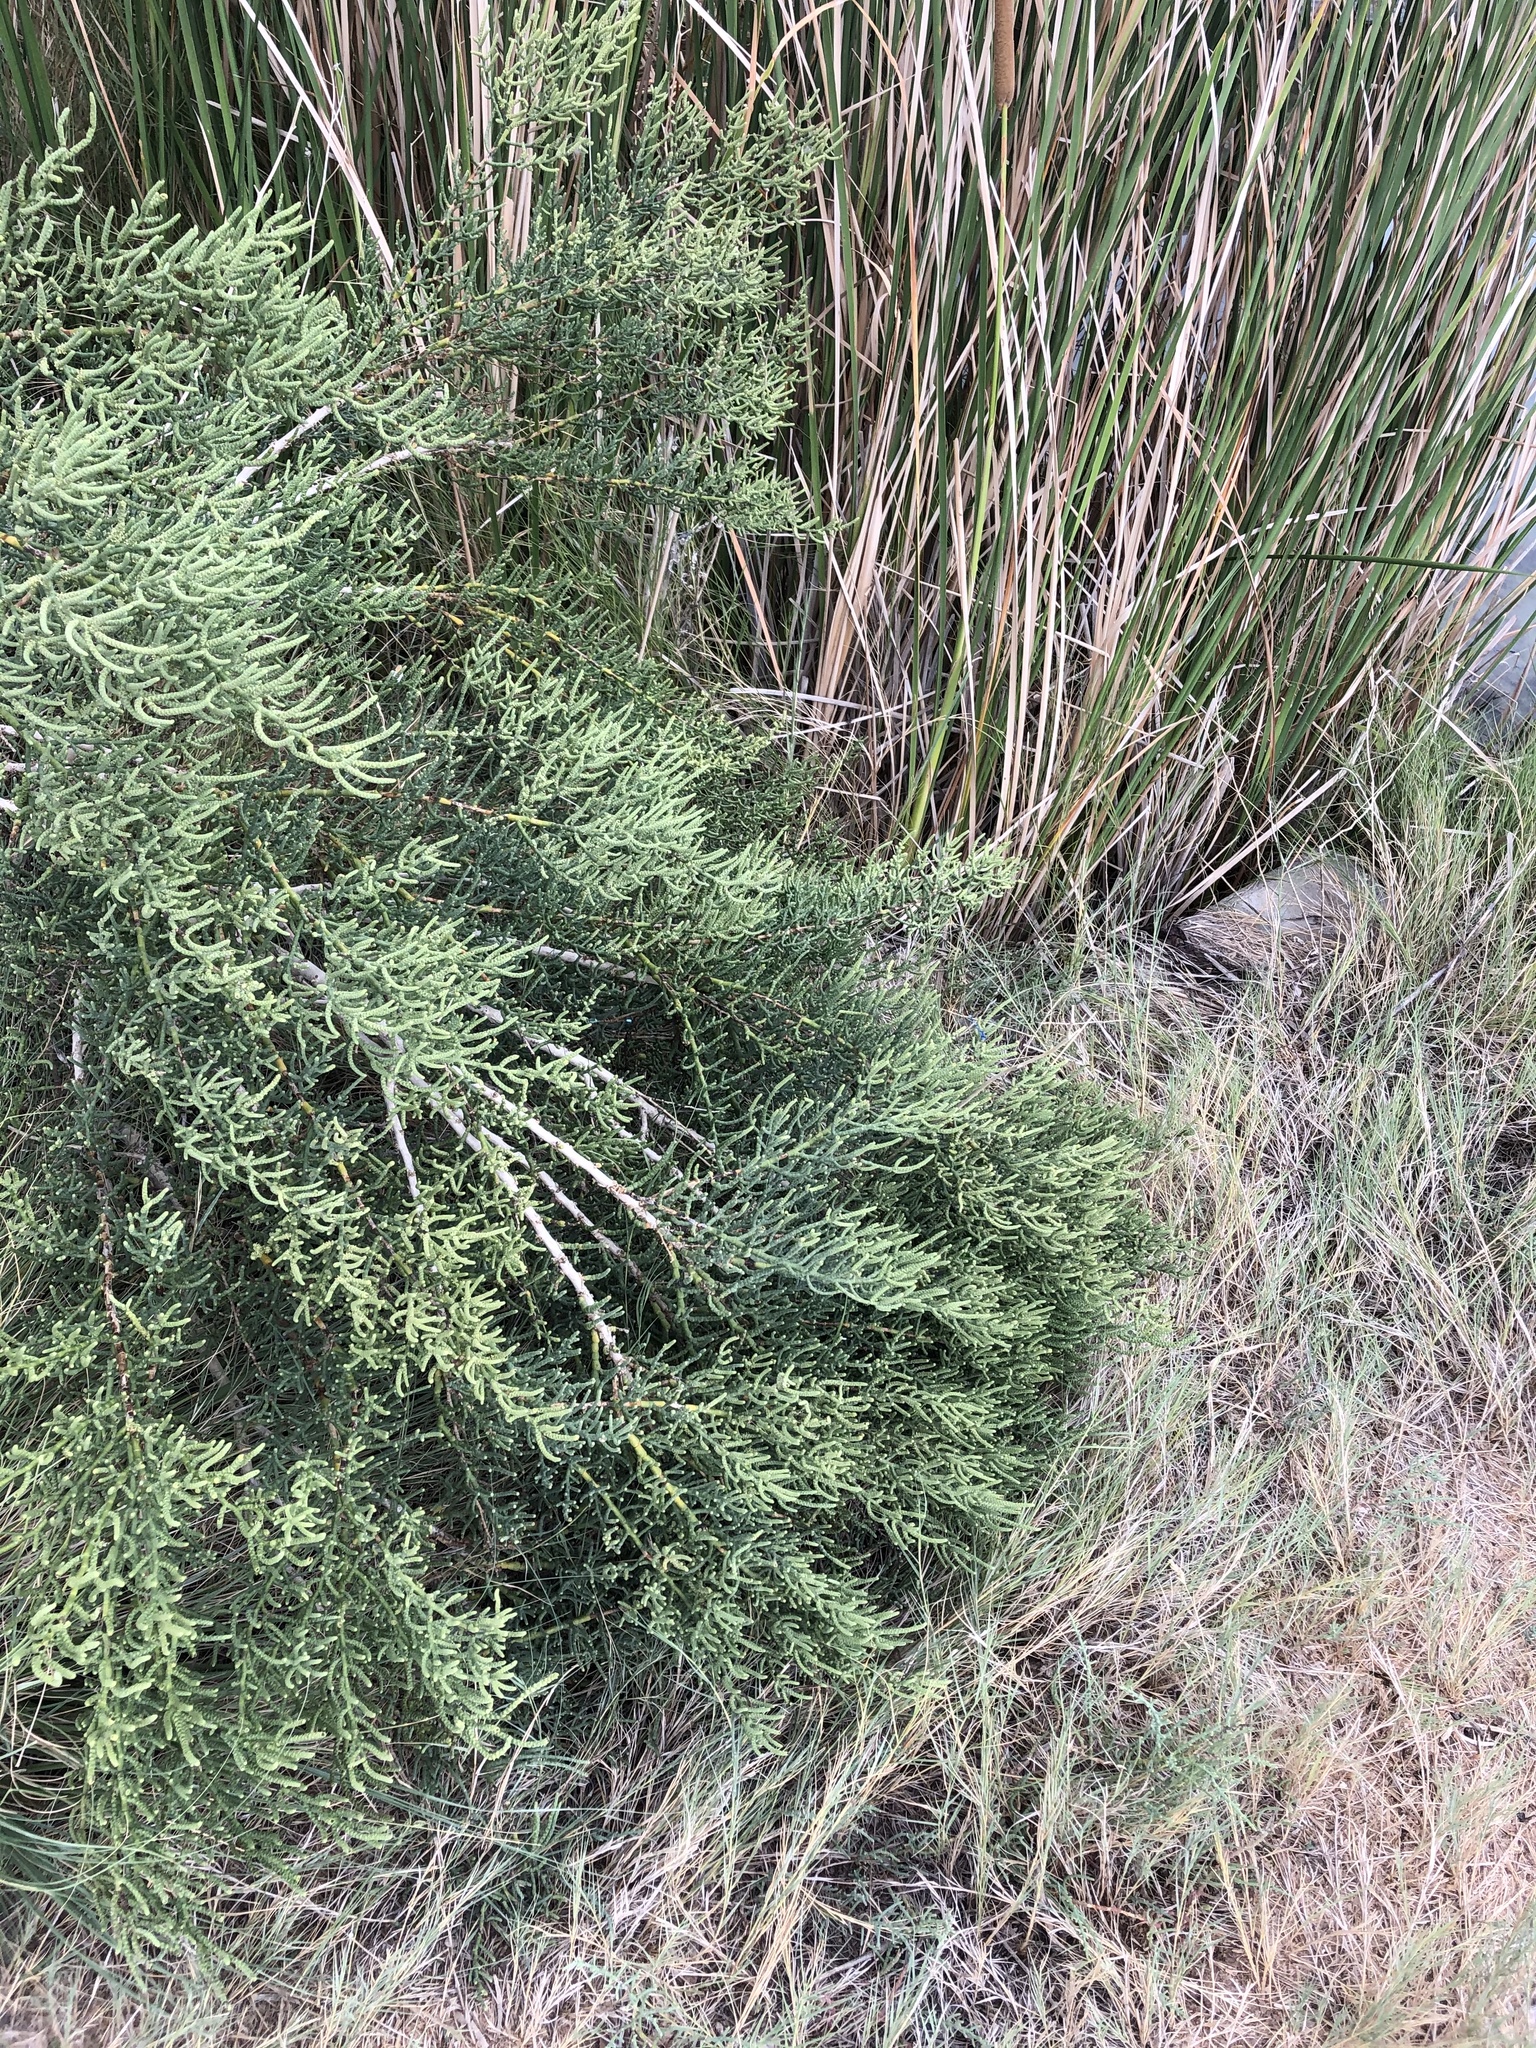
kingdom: Plantae
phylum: Tracheophyta
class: Magnoliopsida
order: Caryophyllales
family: Amaranthaceae
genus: Allenrolfea
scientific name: Allenrolfea occidentalis
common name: Iodine-bush
